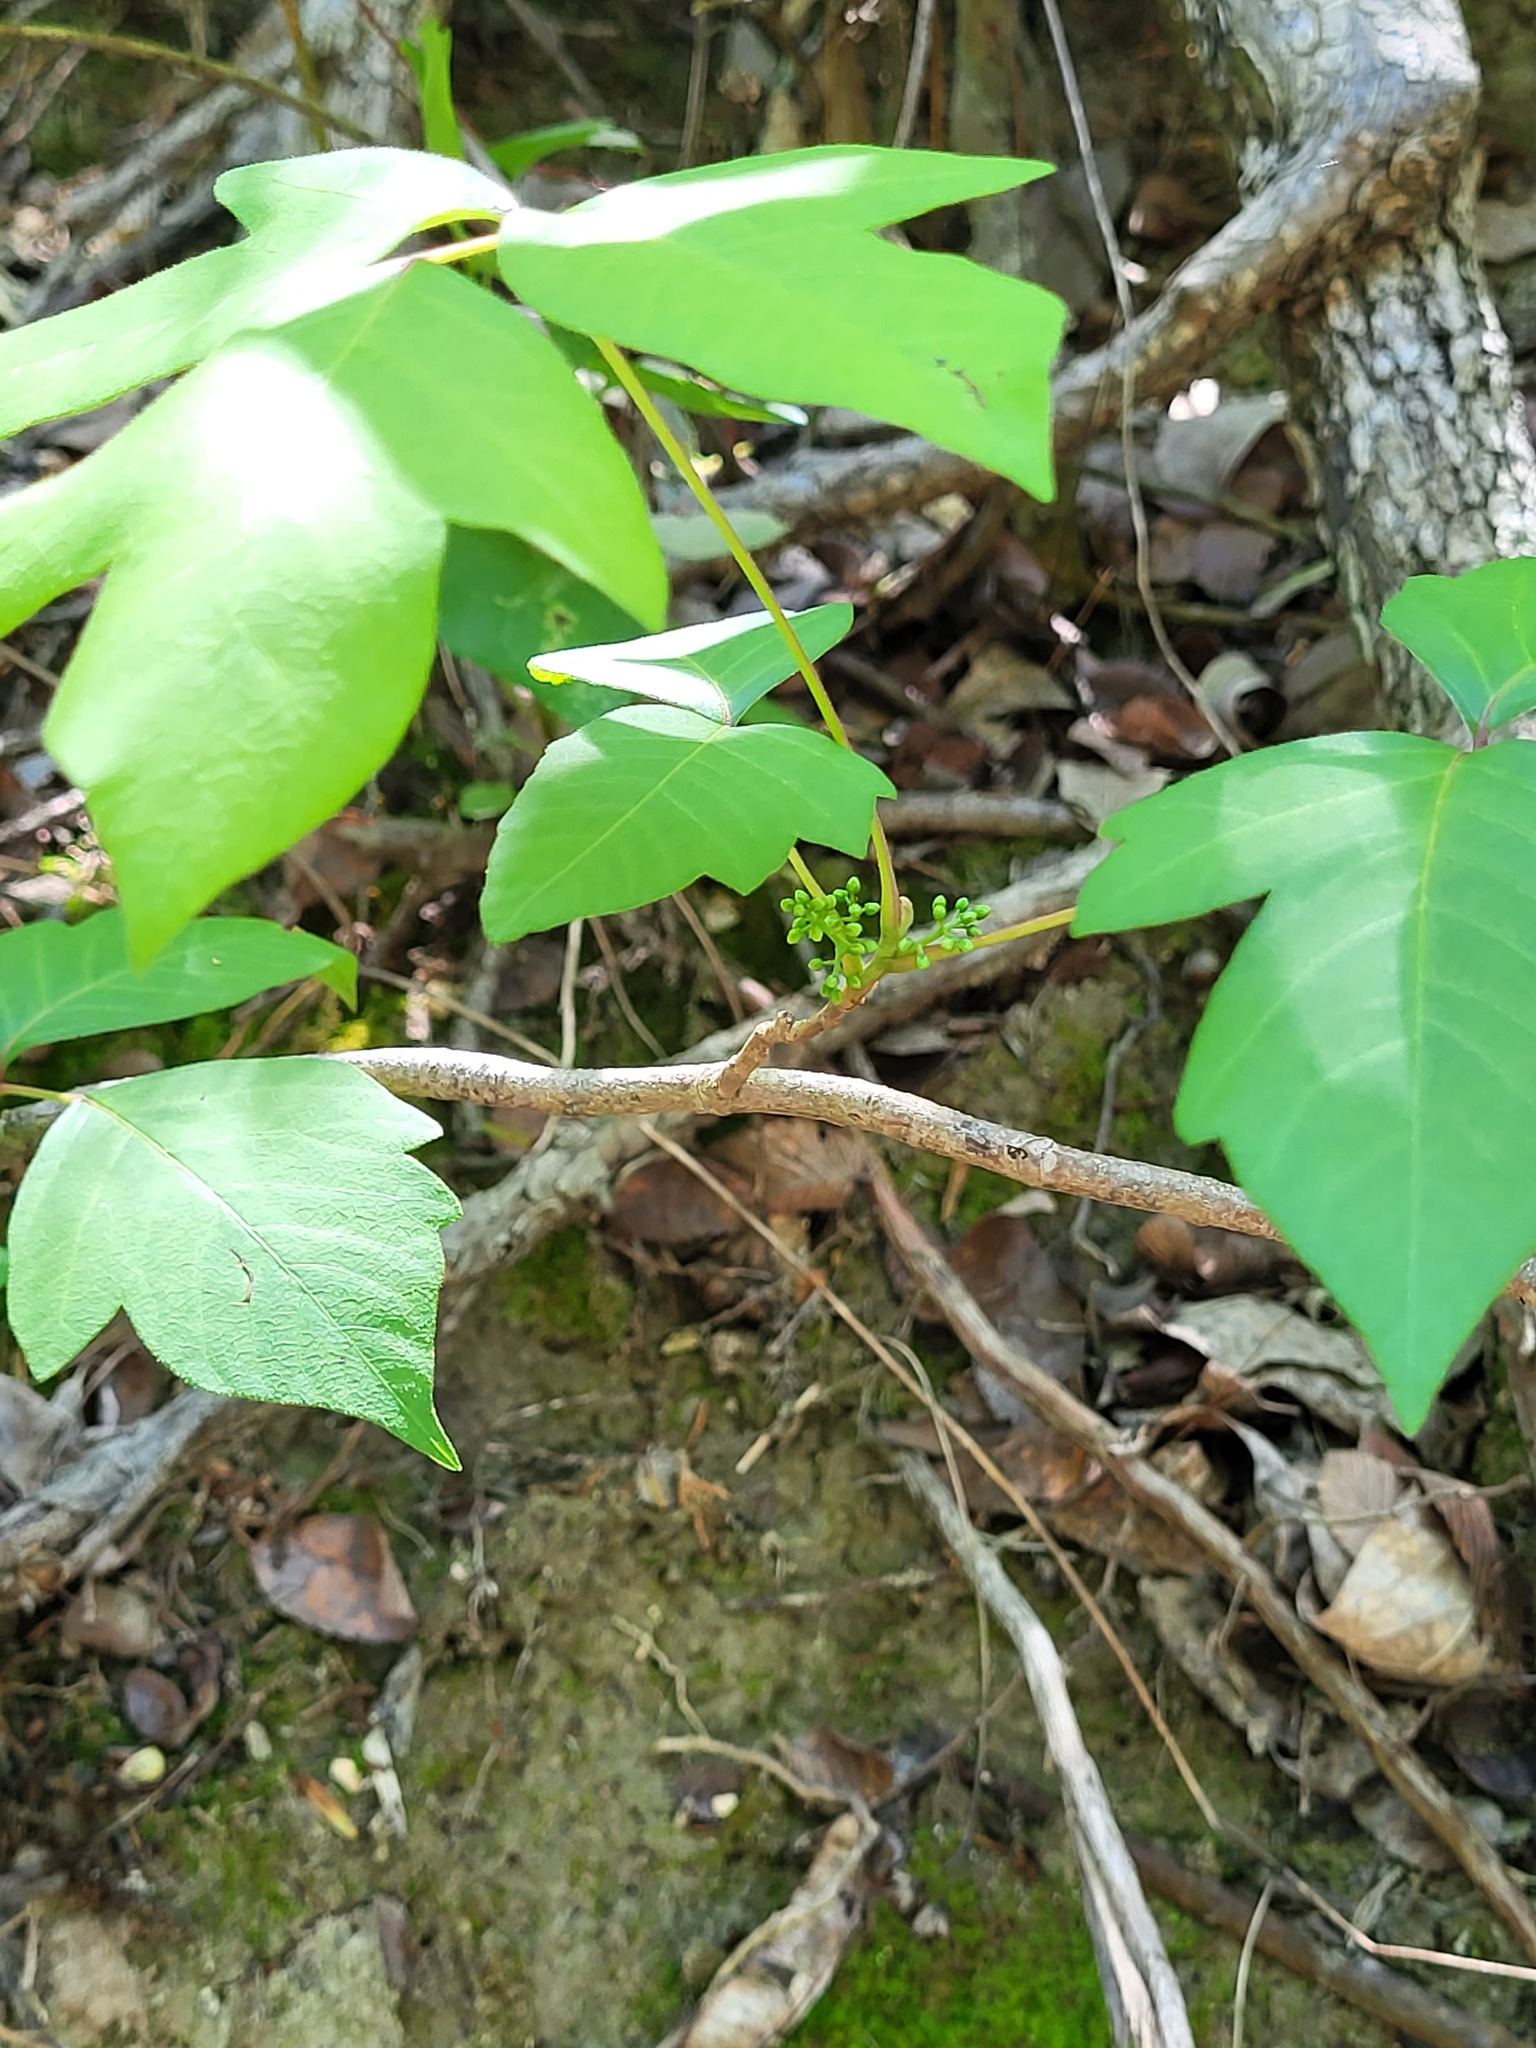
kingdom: Plantae
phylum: Tracheophyta
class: Magnoliopsida
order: Sapindales
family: Anacardiaceae
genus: Toxicodendron
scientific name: Toxicodendron radicans
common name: Poison ivy
